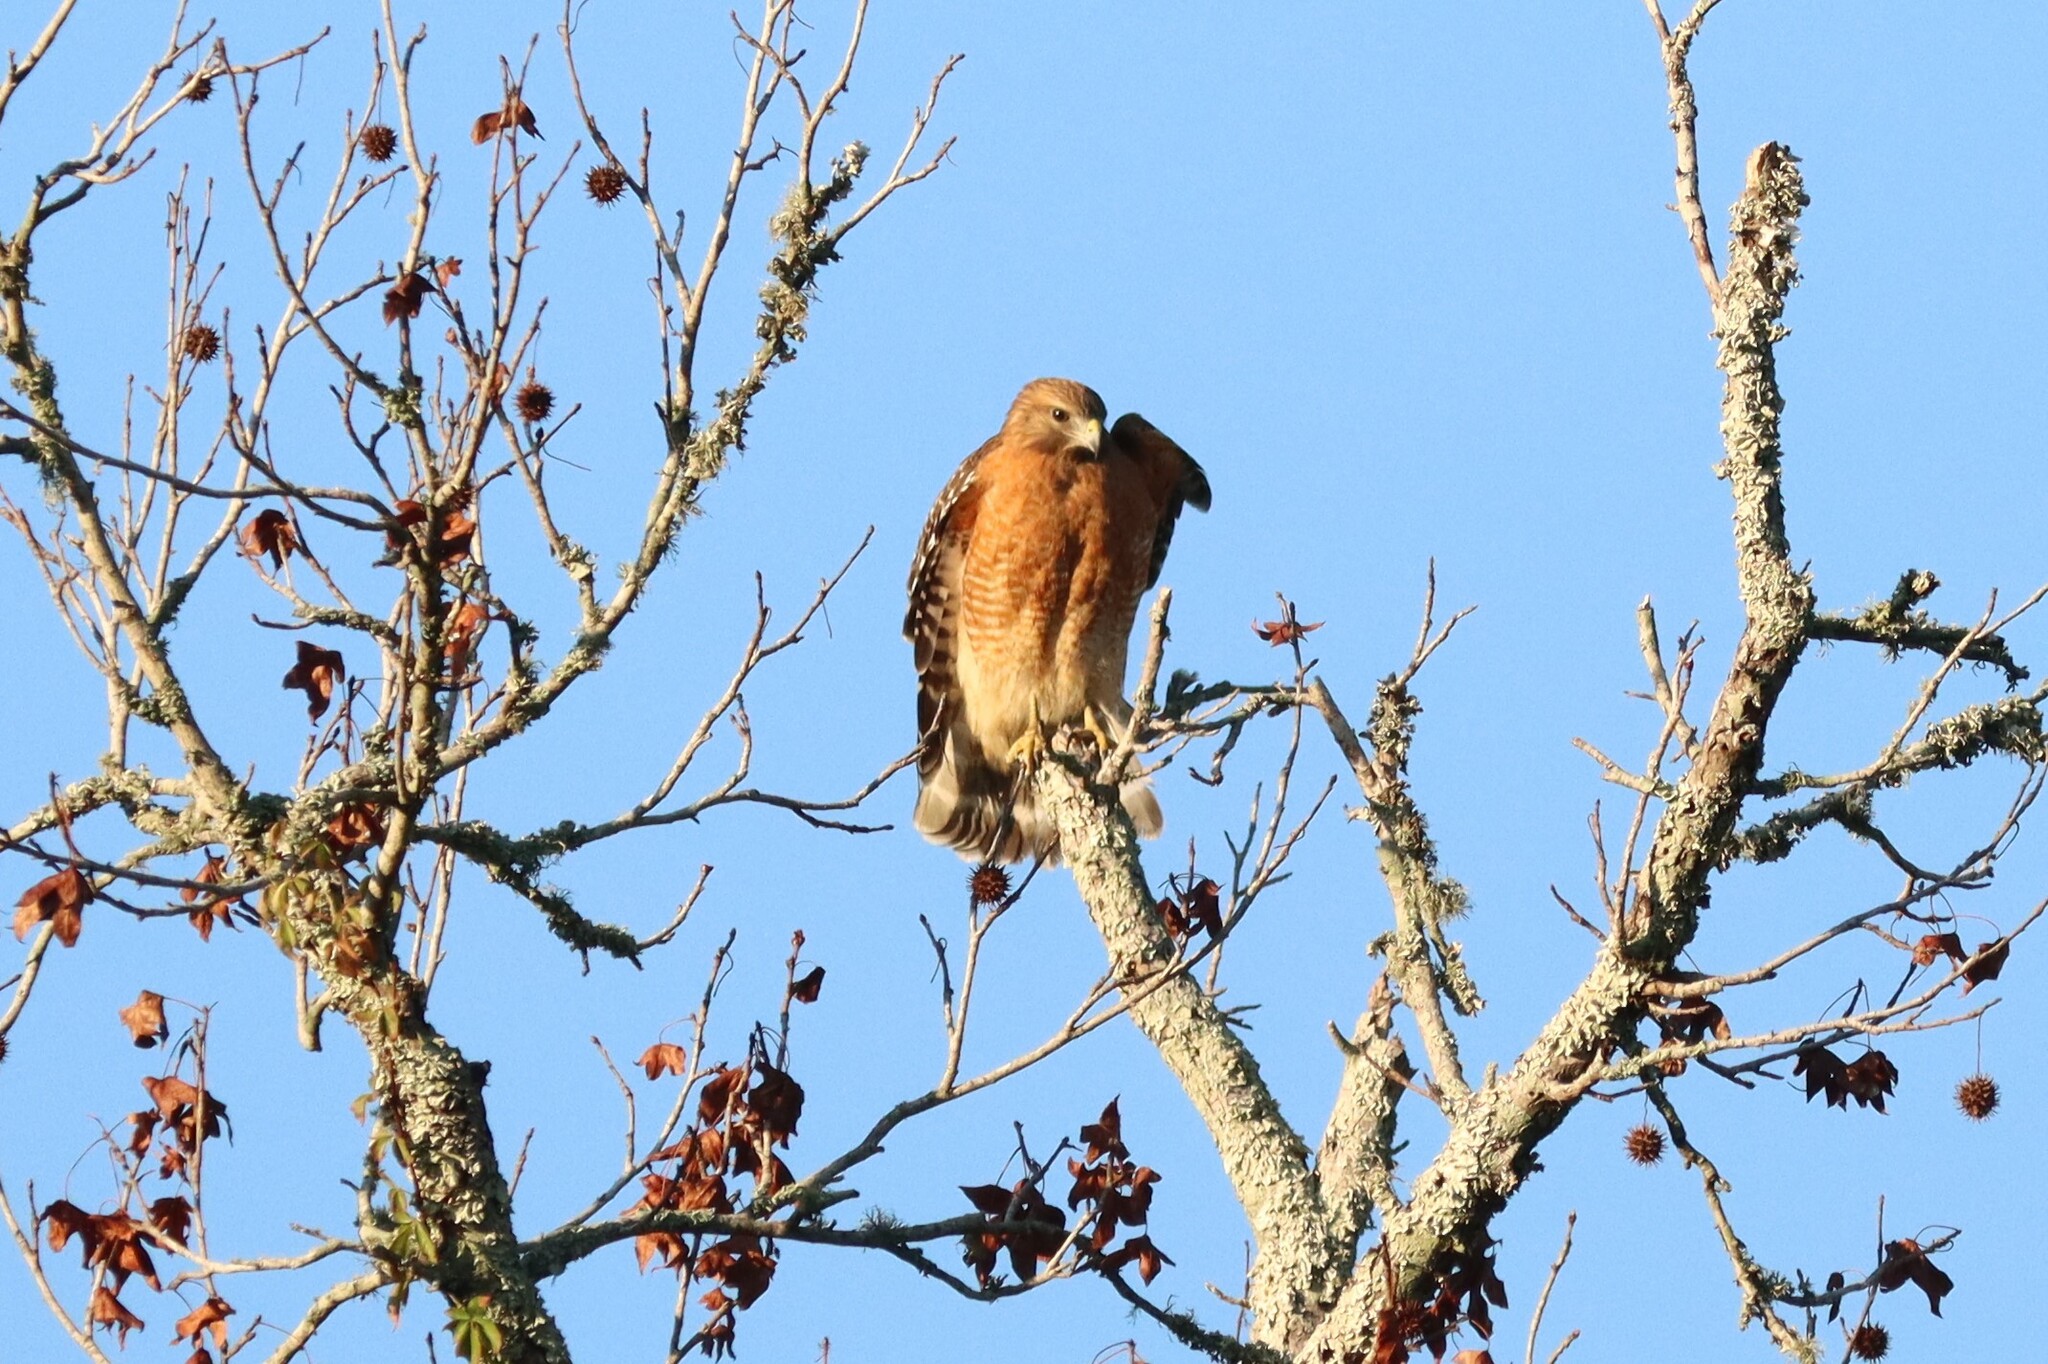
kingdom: Animalia
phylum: Chordata
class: Aves
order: Accipitriformes
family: Accipitridae
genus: Buteo
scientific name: Buteo lineatus
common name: Red-shouldered hawk
